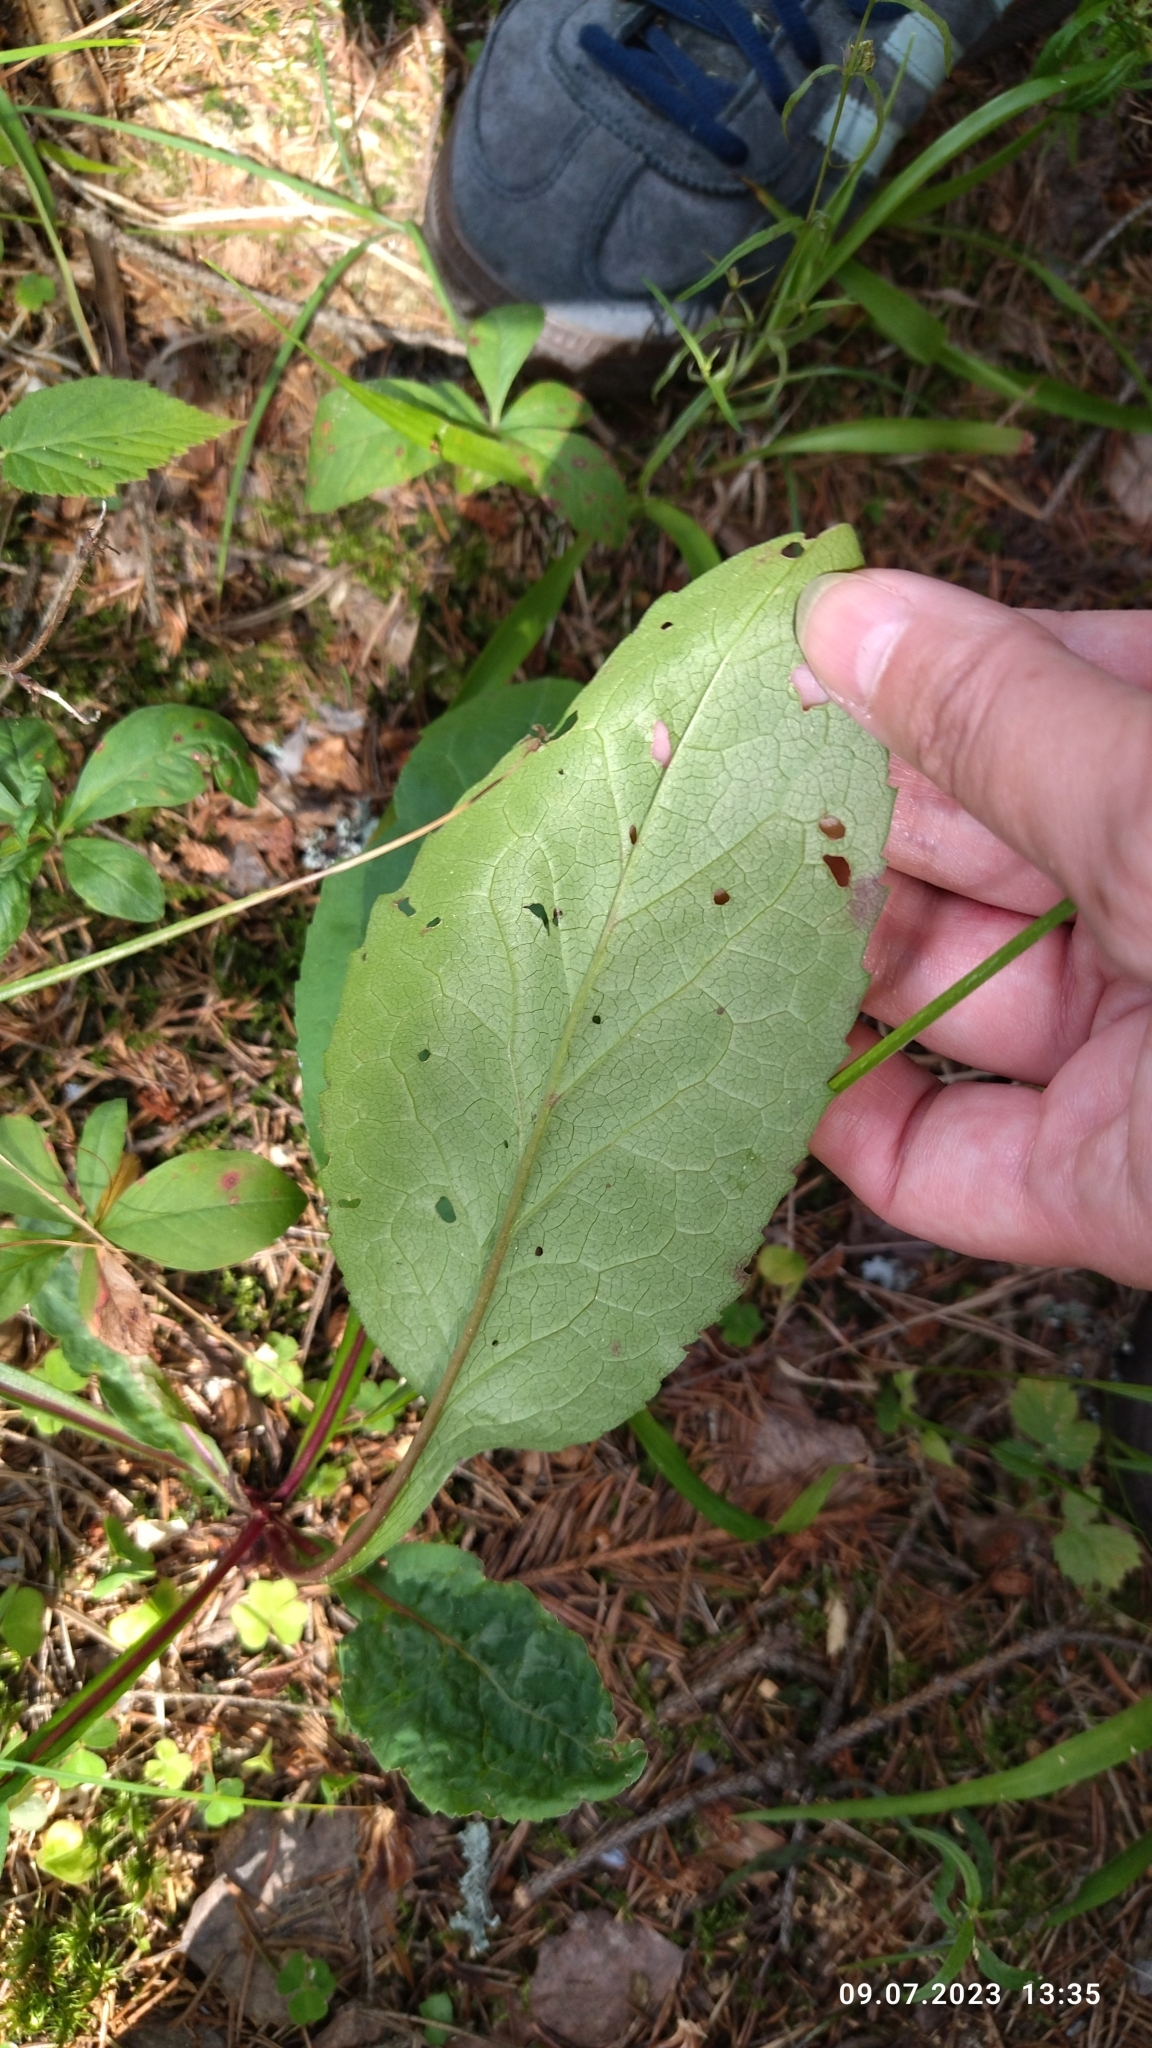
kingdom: Plantae
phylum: Tracheophyta
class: Magnoliopsida
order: Asterales
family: Asteraceae
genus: Solidago
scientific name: Solidago virgaurea
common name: Goldenrod
